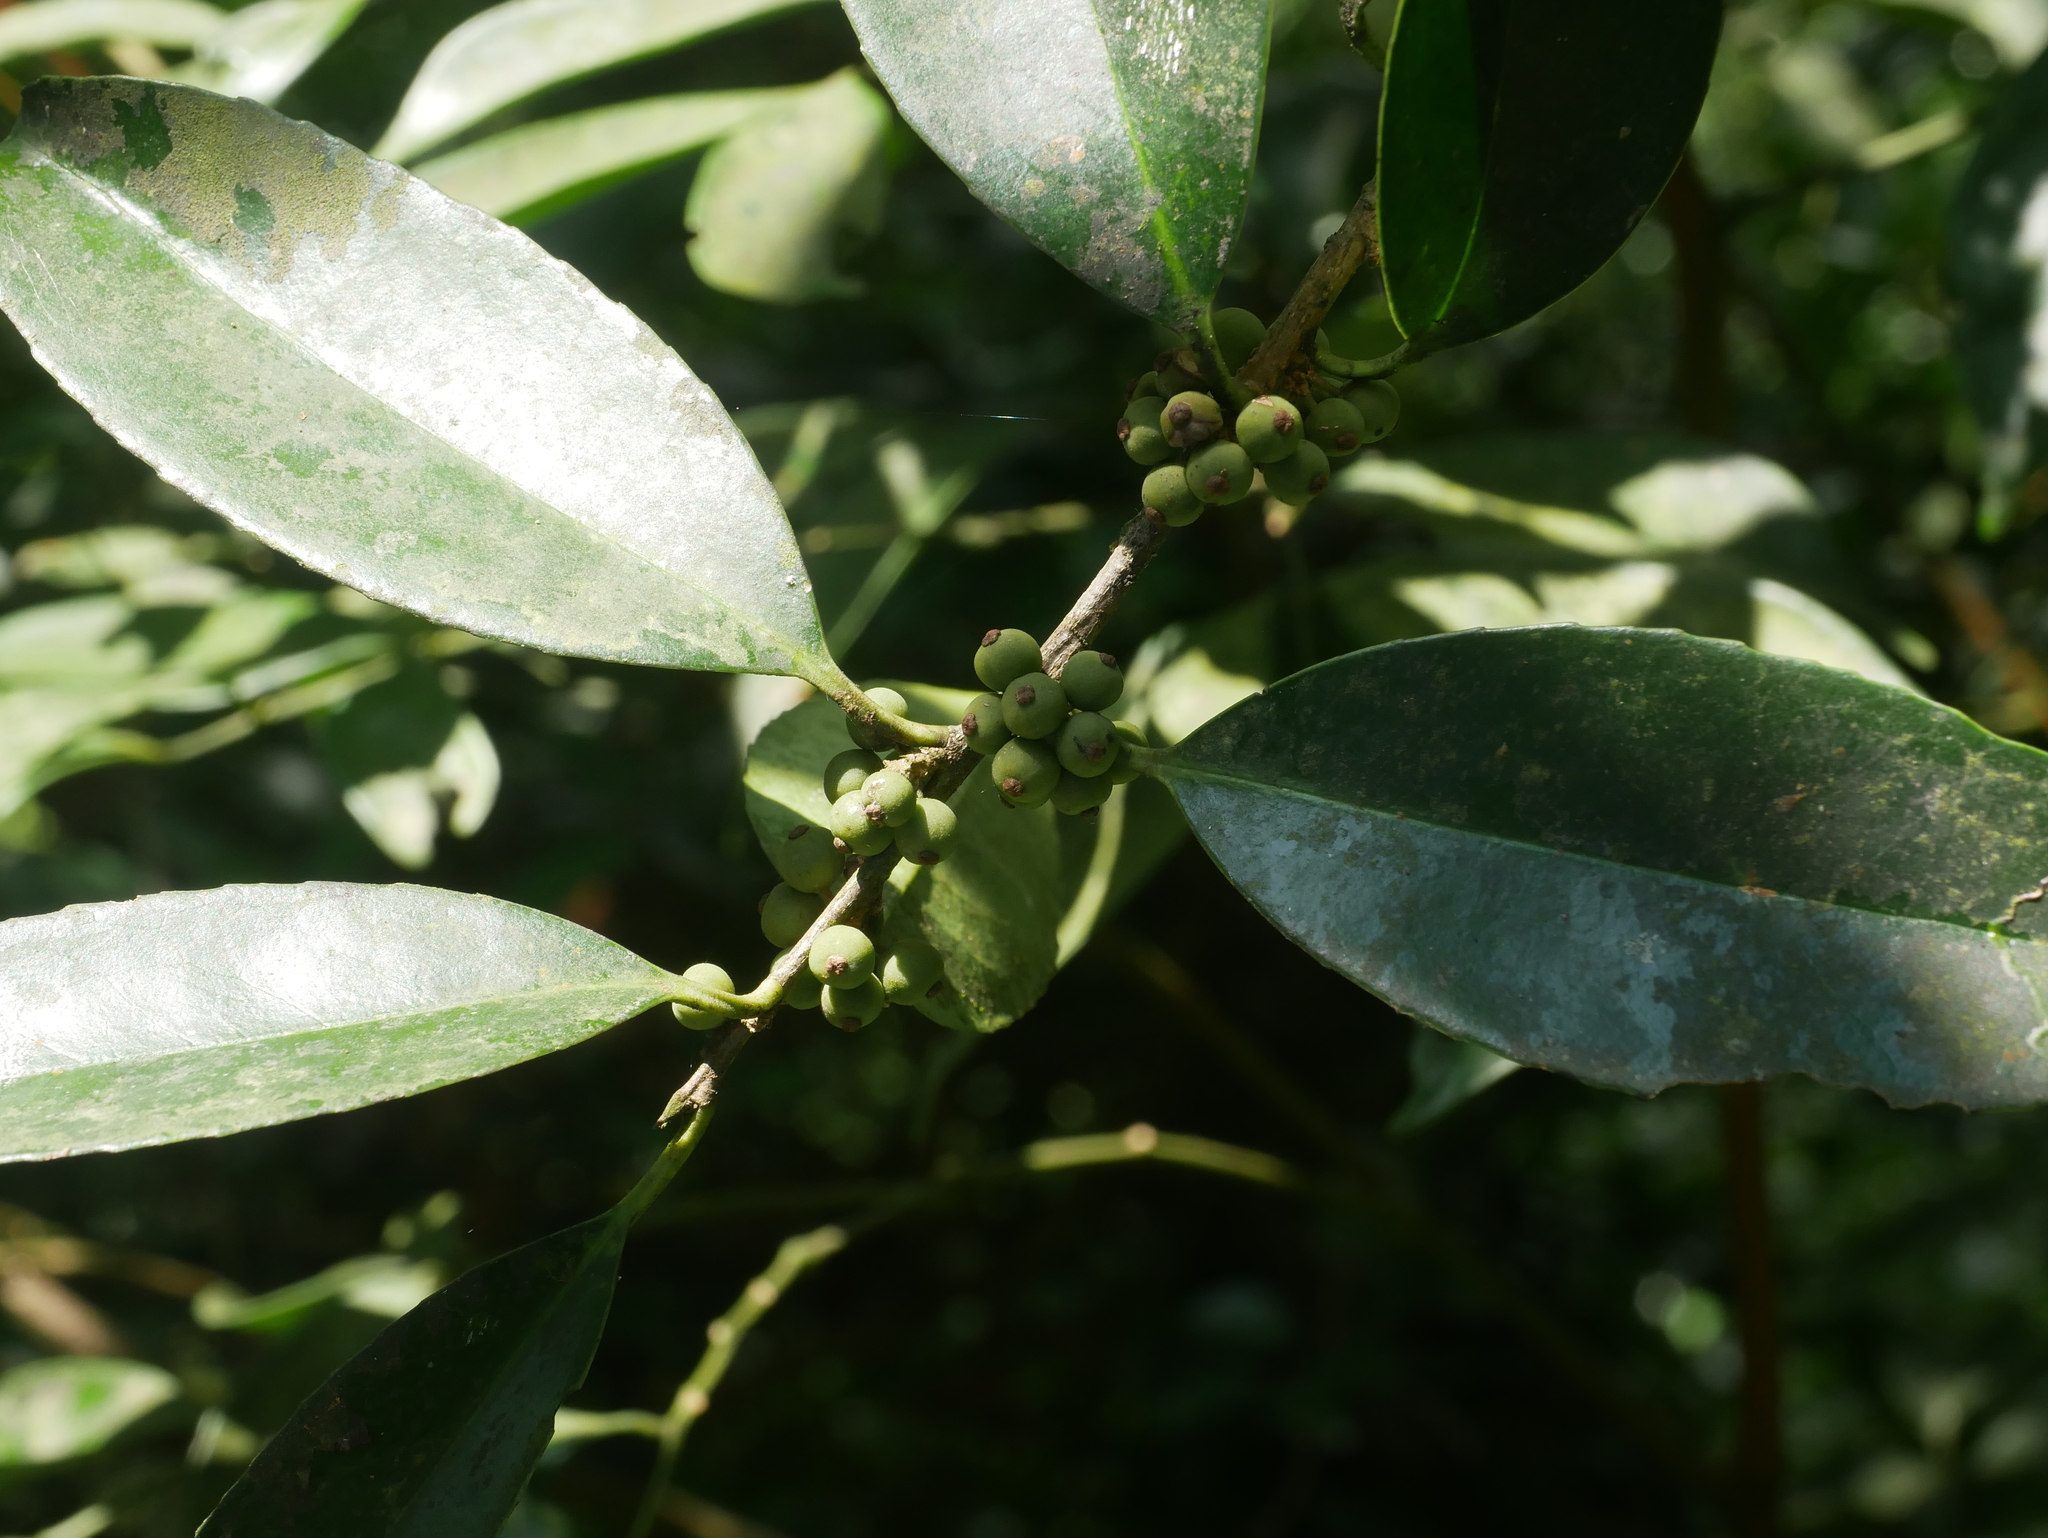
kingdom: Plantae
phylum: Tracheophyta
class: Magnoliopsida
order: Aquifoliales
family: Aquifoliaceae
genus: Ilex
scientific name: Ilex ficoidea
